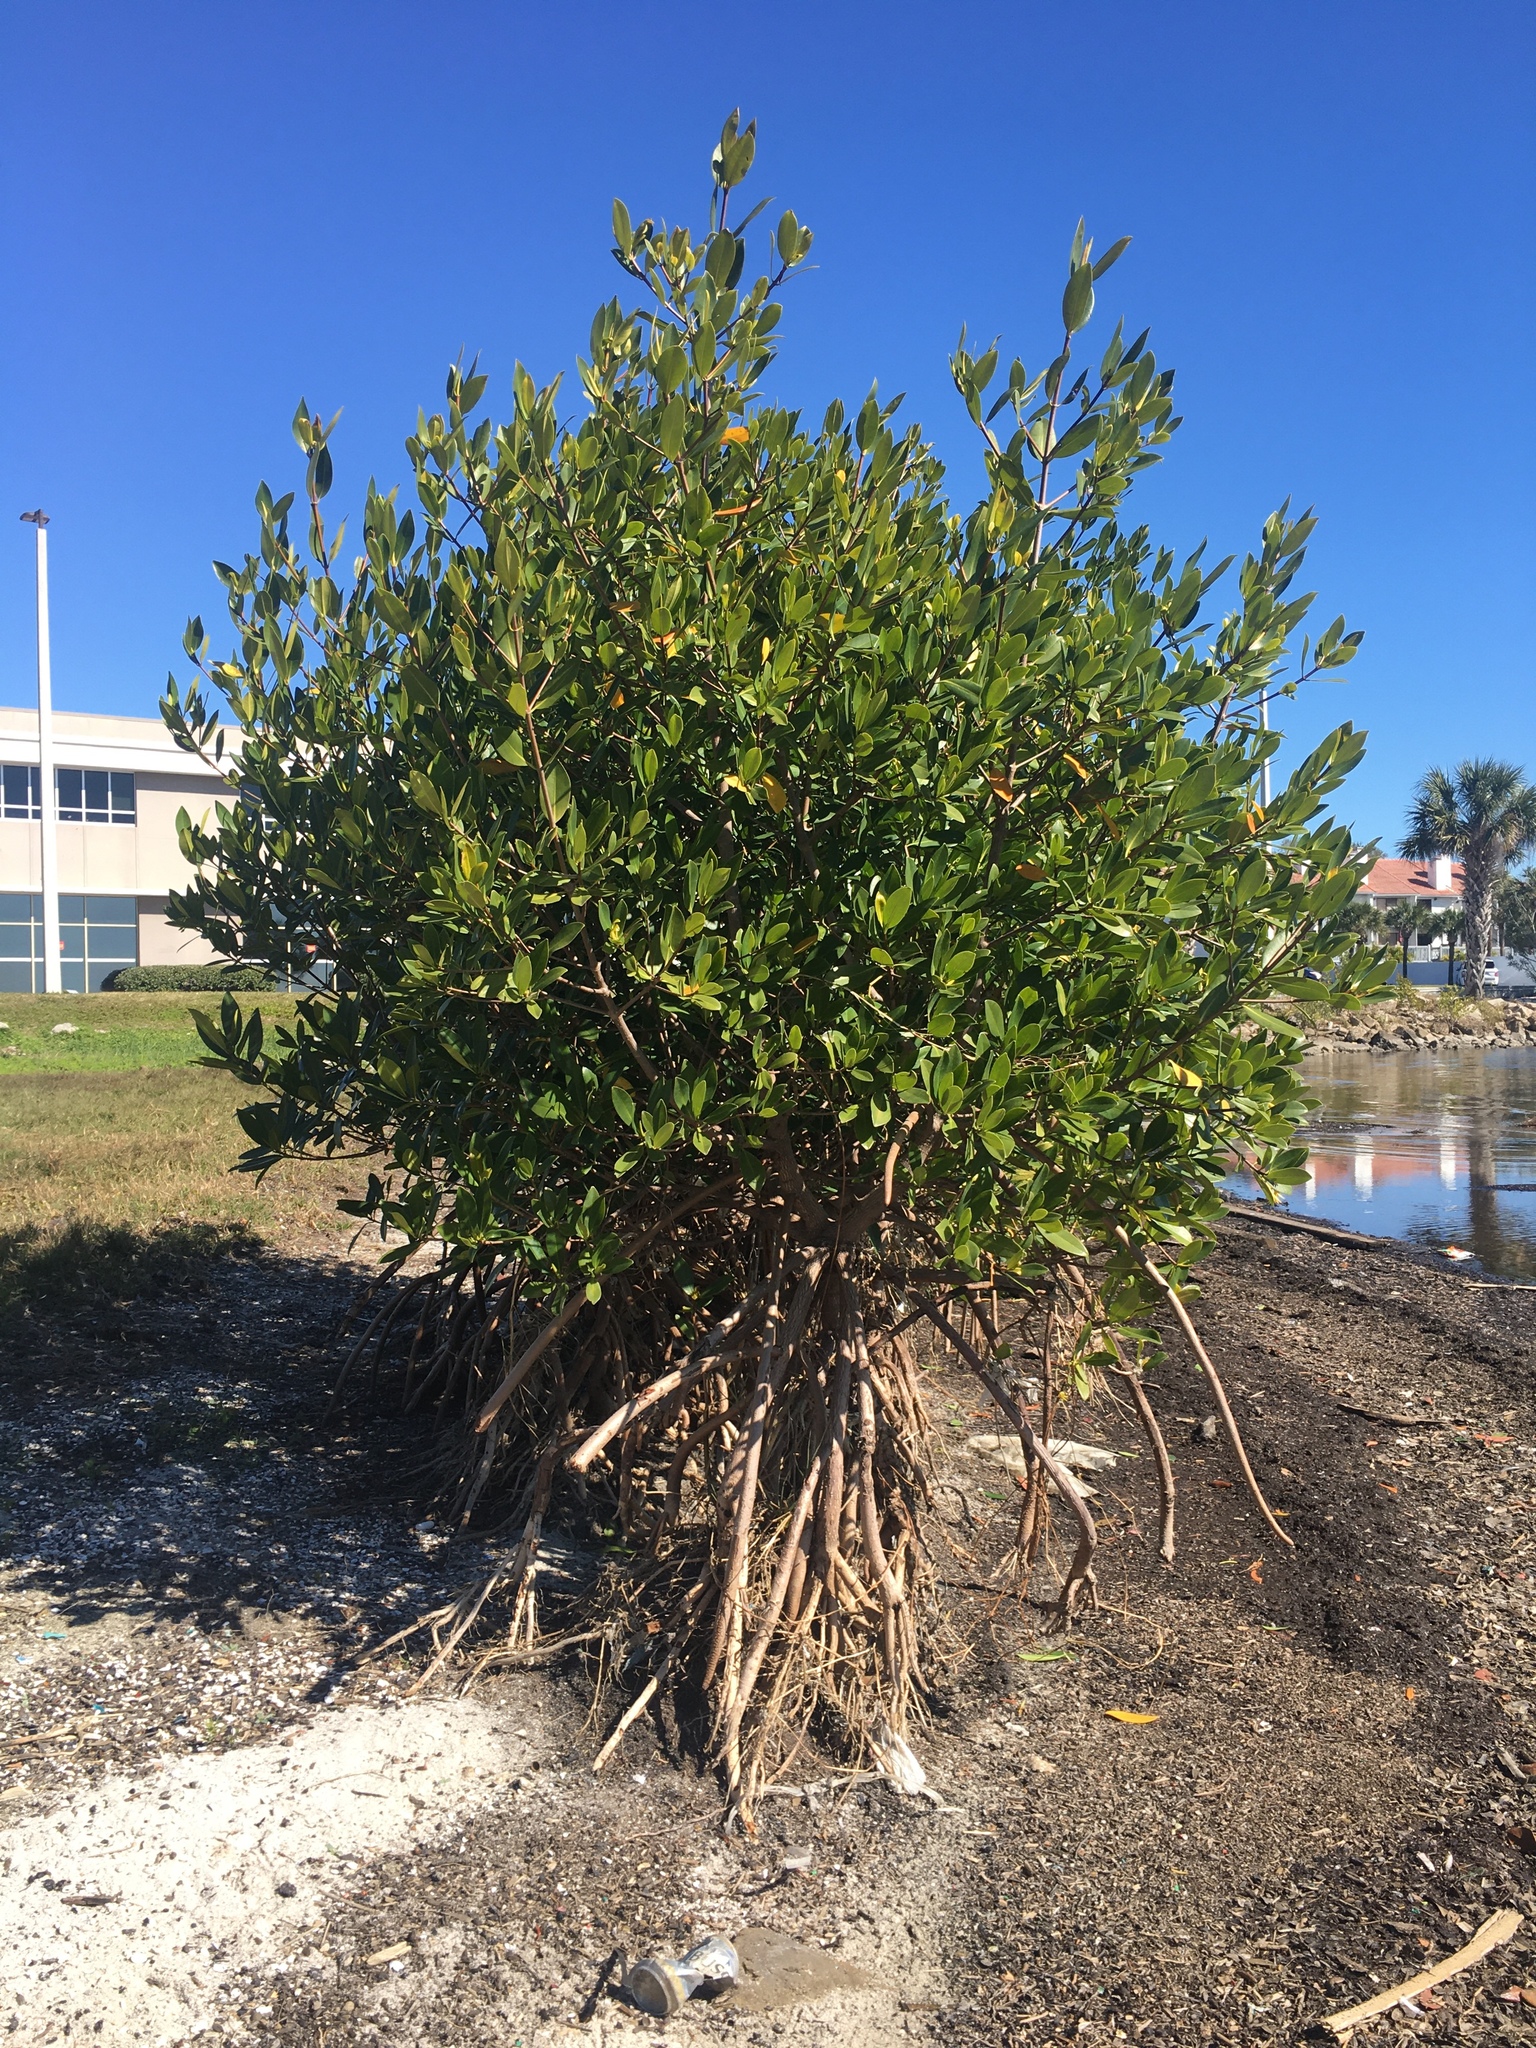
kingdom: Plantae
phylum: Tracheophyta
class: Magnoliopsida
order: Malpighiales
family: Rhizophoraceae
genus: Rhizophora
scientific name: Rhizophora mangle
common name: Red mangrove
